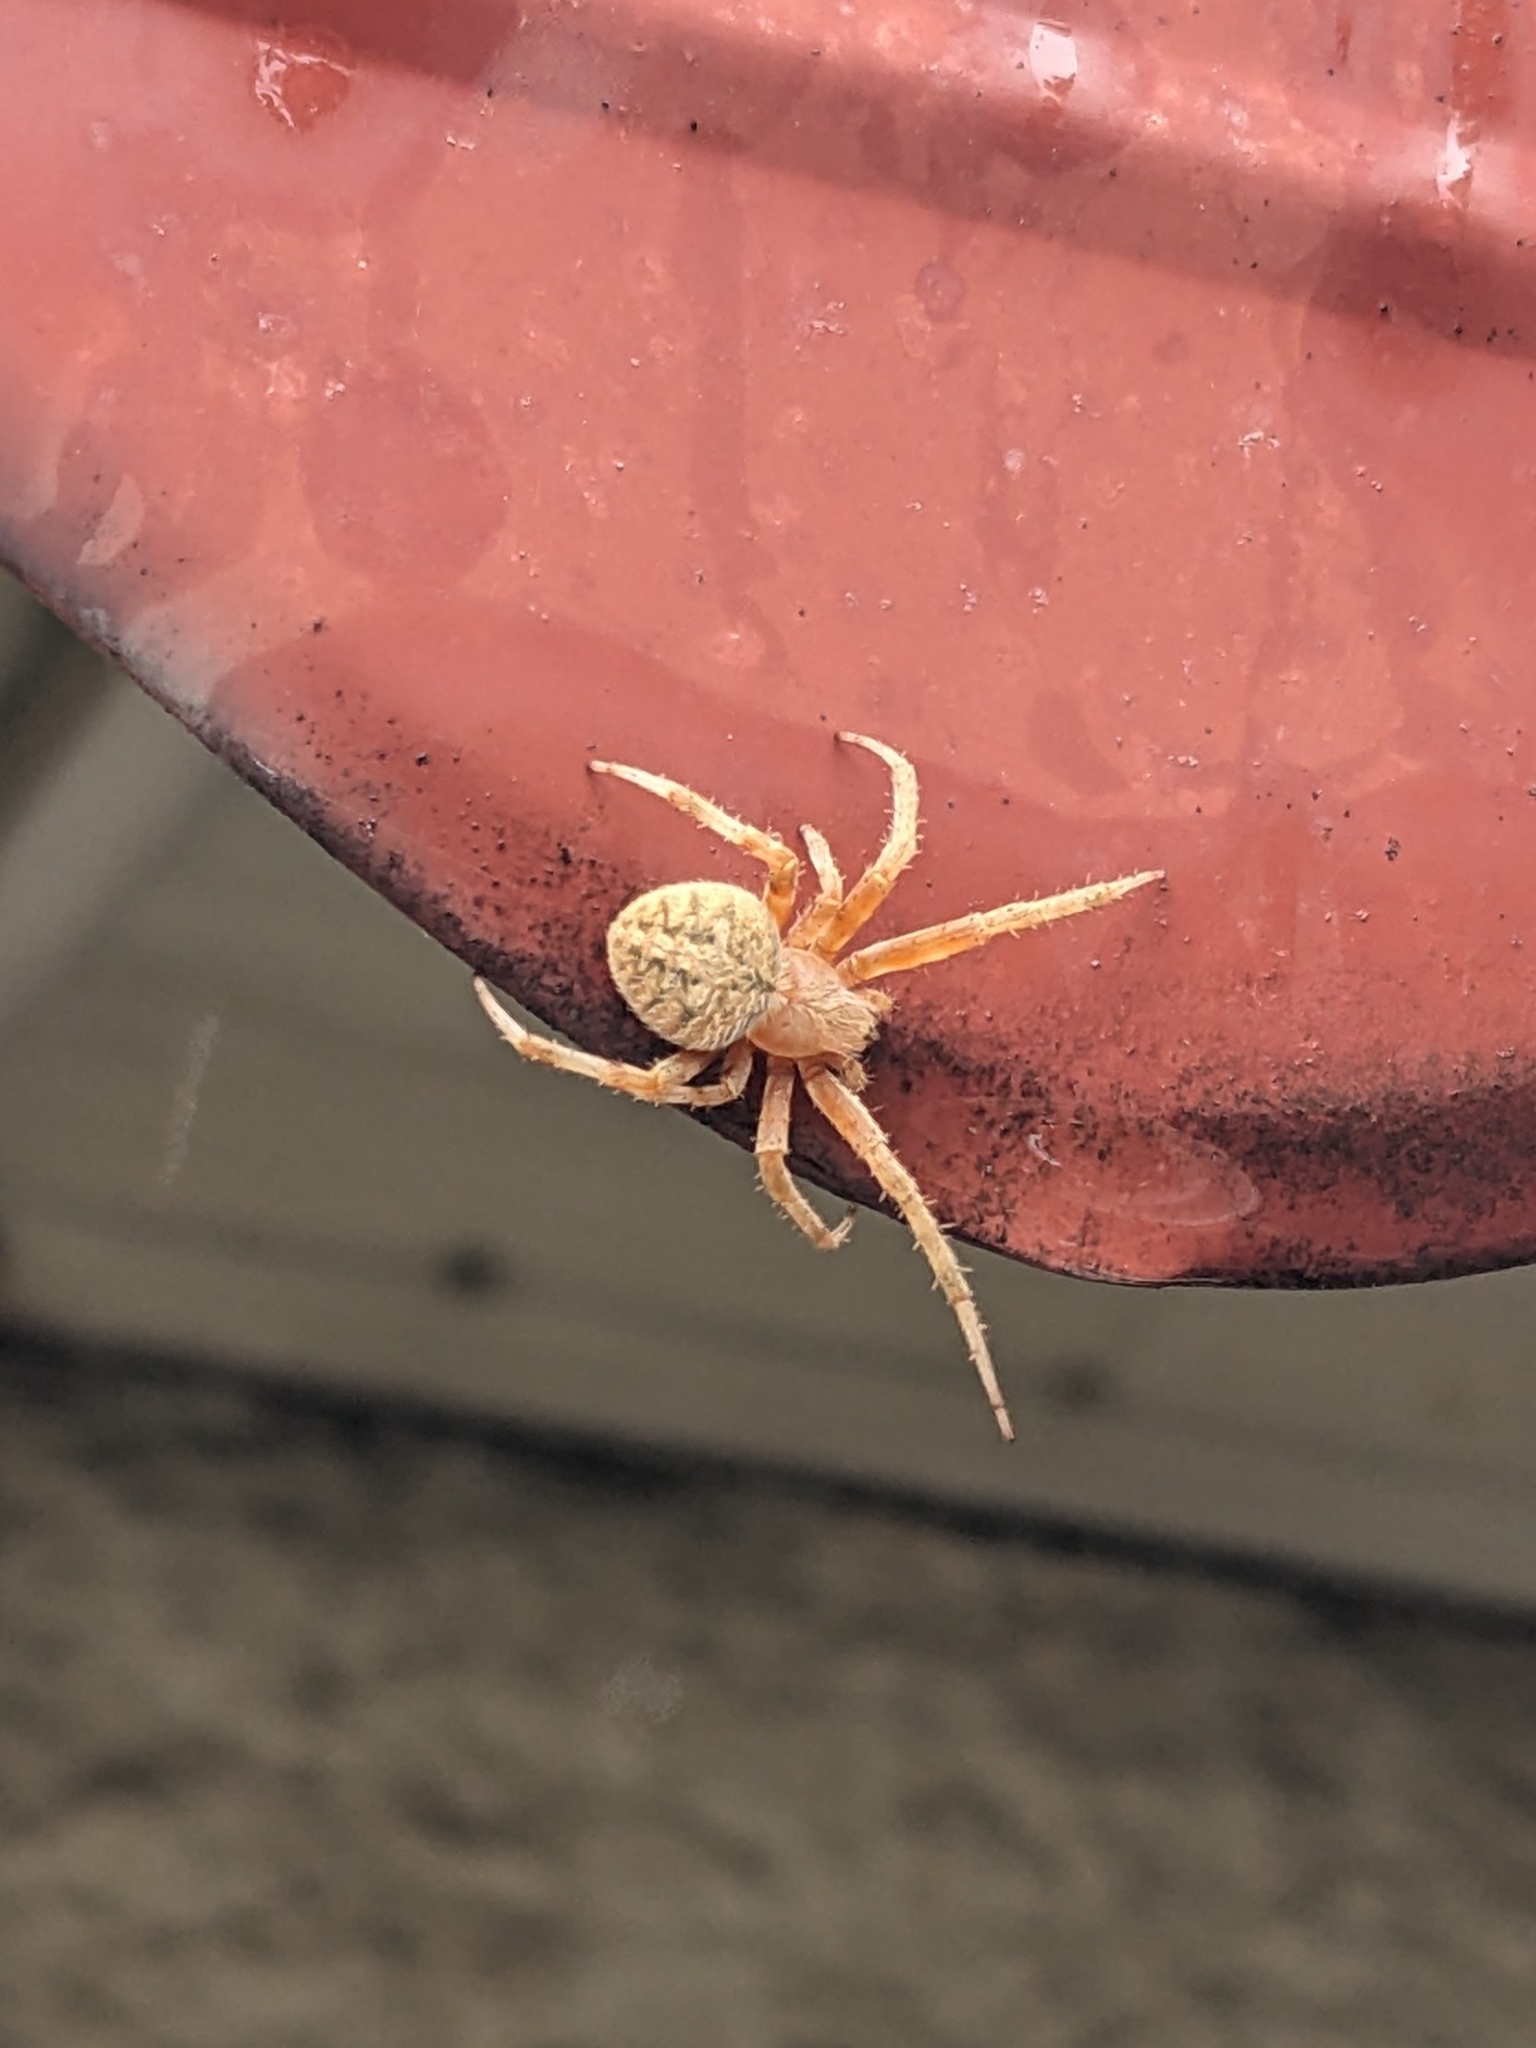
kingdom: Animalia
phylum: Arthropoda
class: Arachnida
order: Araneae
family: Araneidae
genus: Neoscona
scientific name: Neoscona crucifera
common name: Spotted orbweaver
